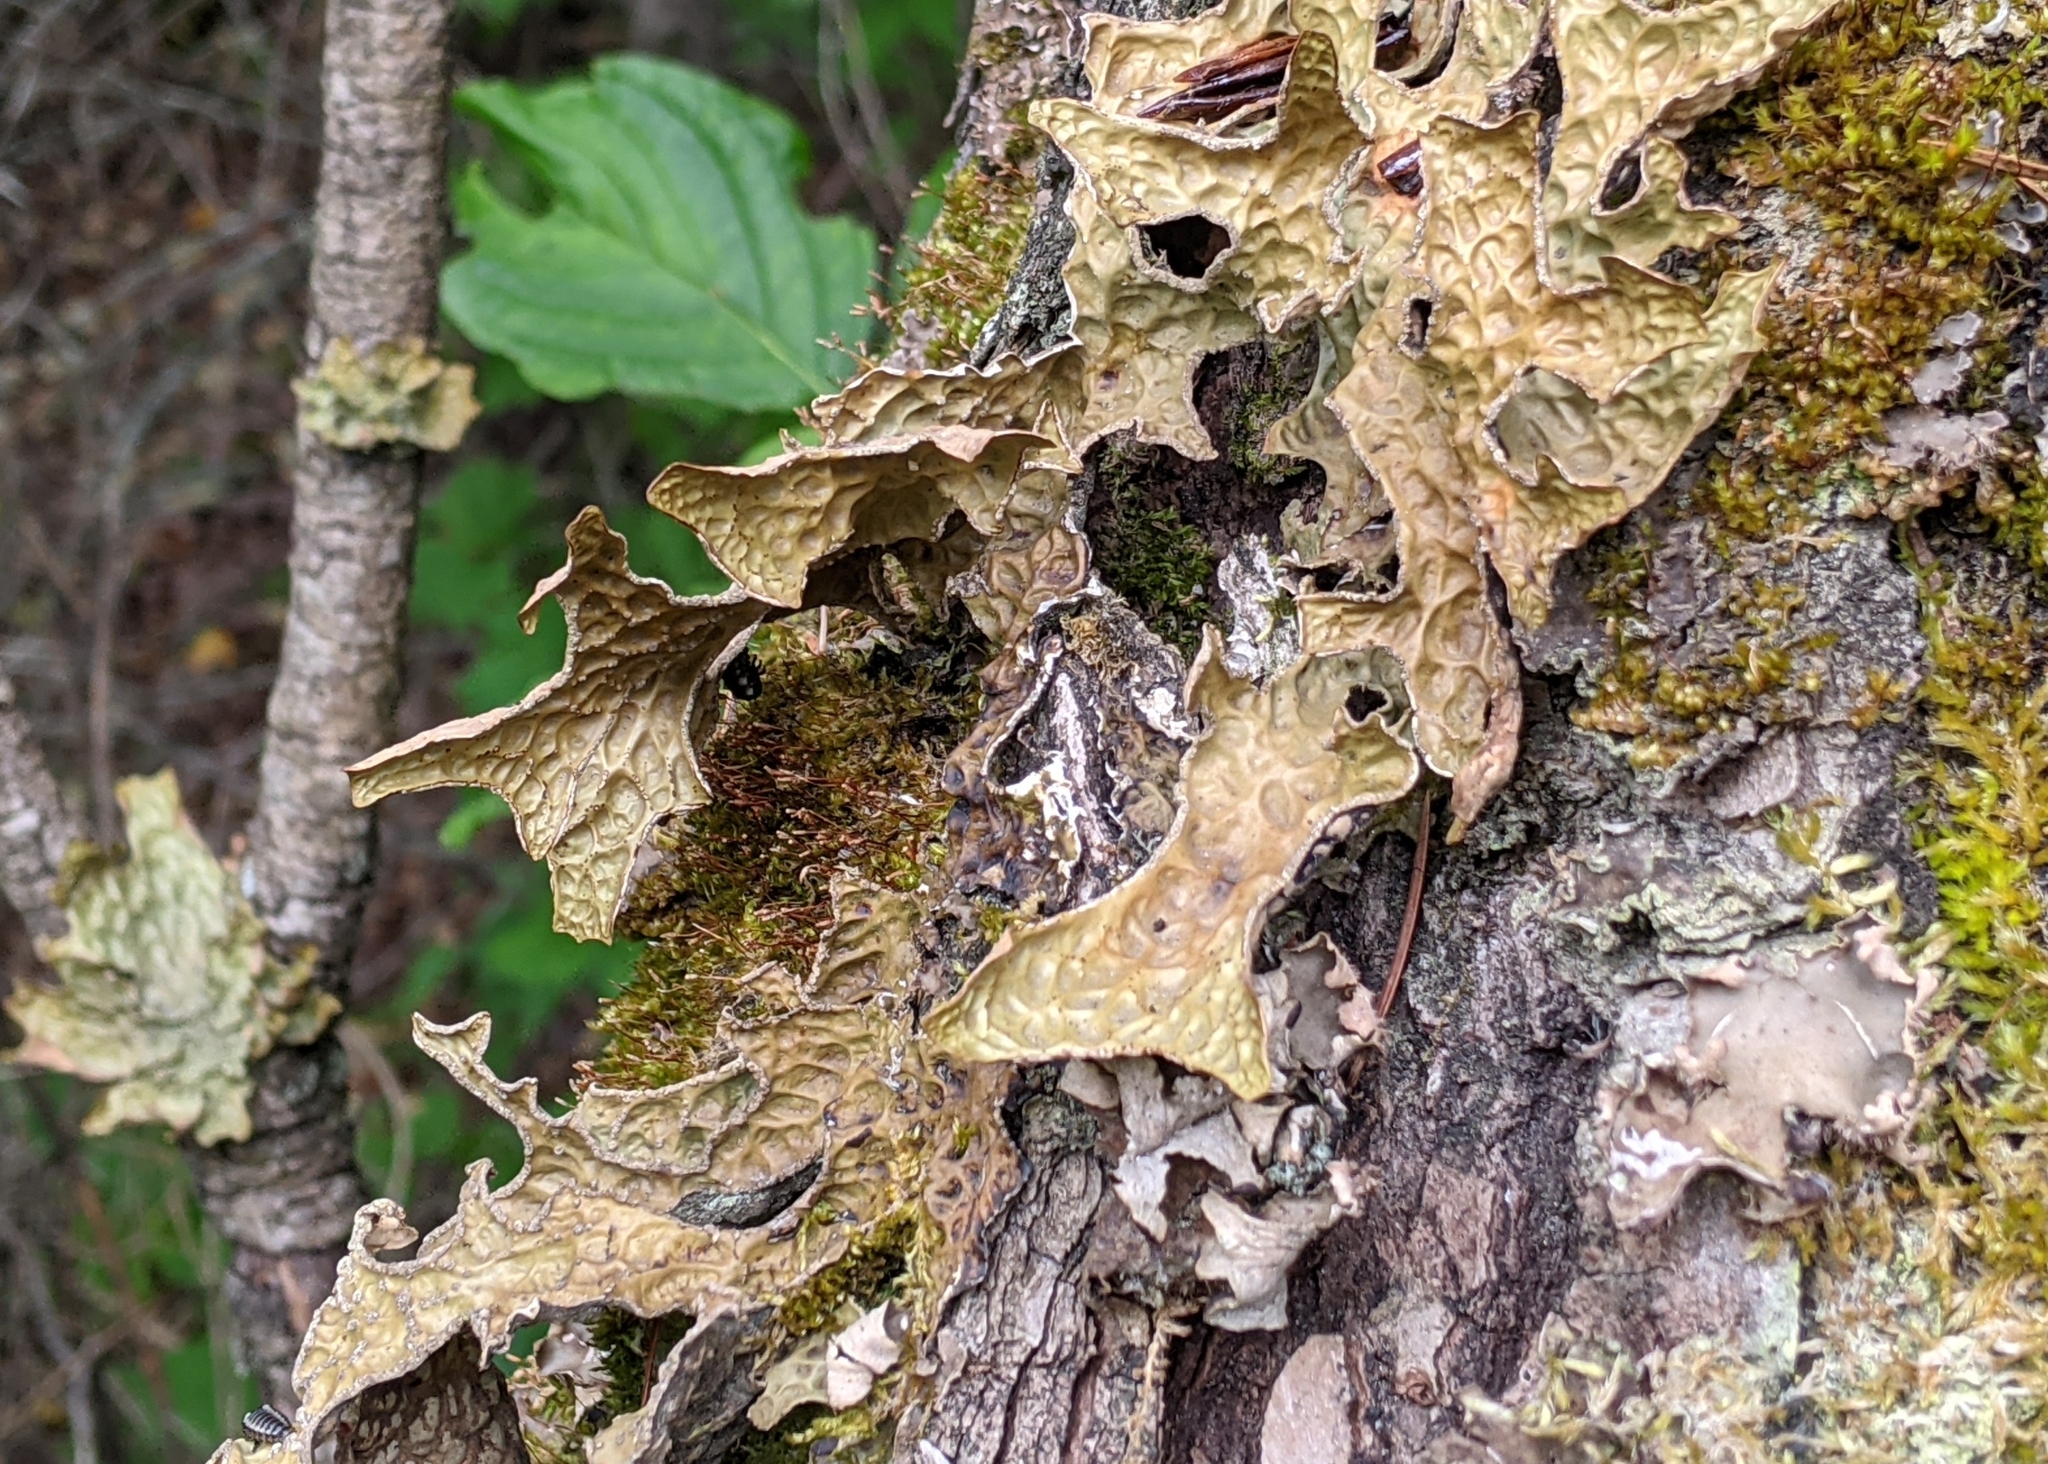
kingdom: Fungi
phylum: Ascomycota
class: Lecanoromycetes
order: Peltigerales
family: Lobariaceae
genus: Lobaria
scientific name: Lobaria pulmonaria
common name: Lungwort
